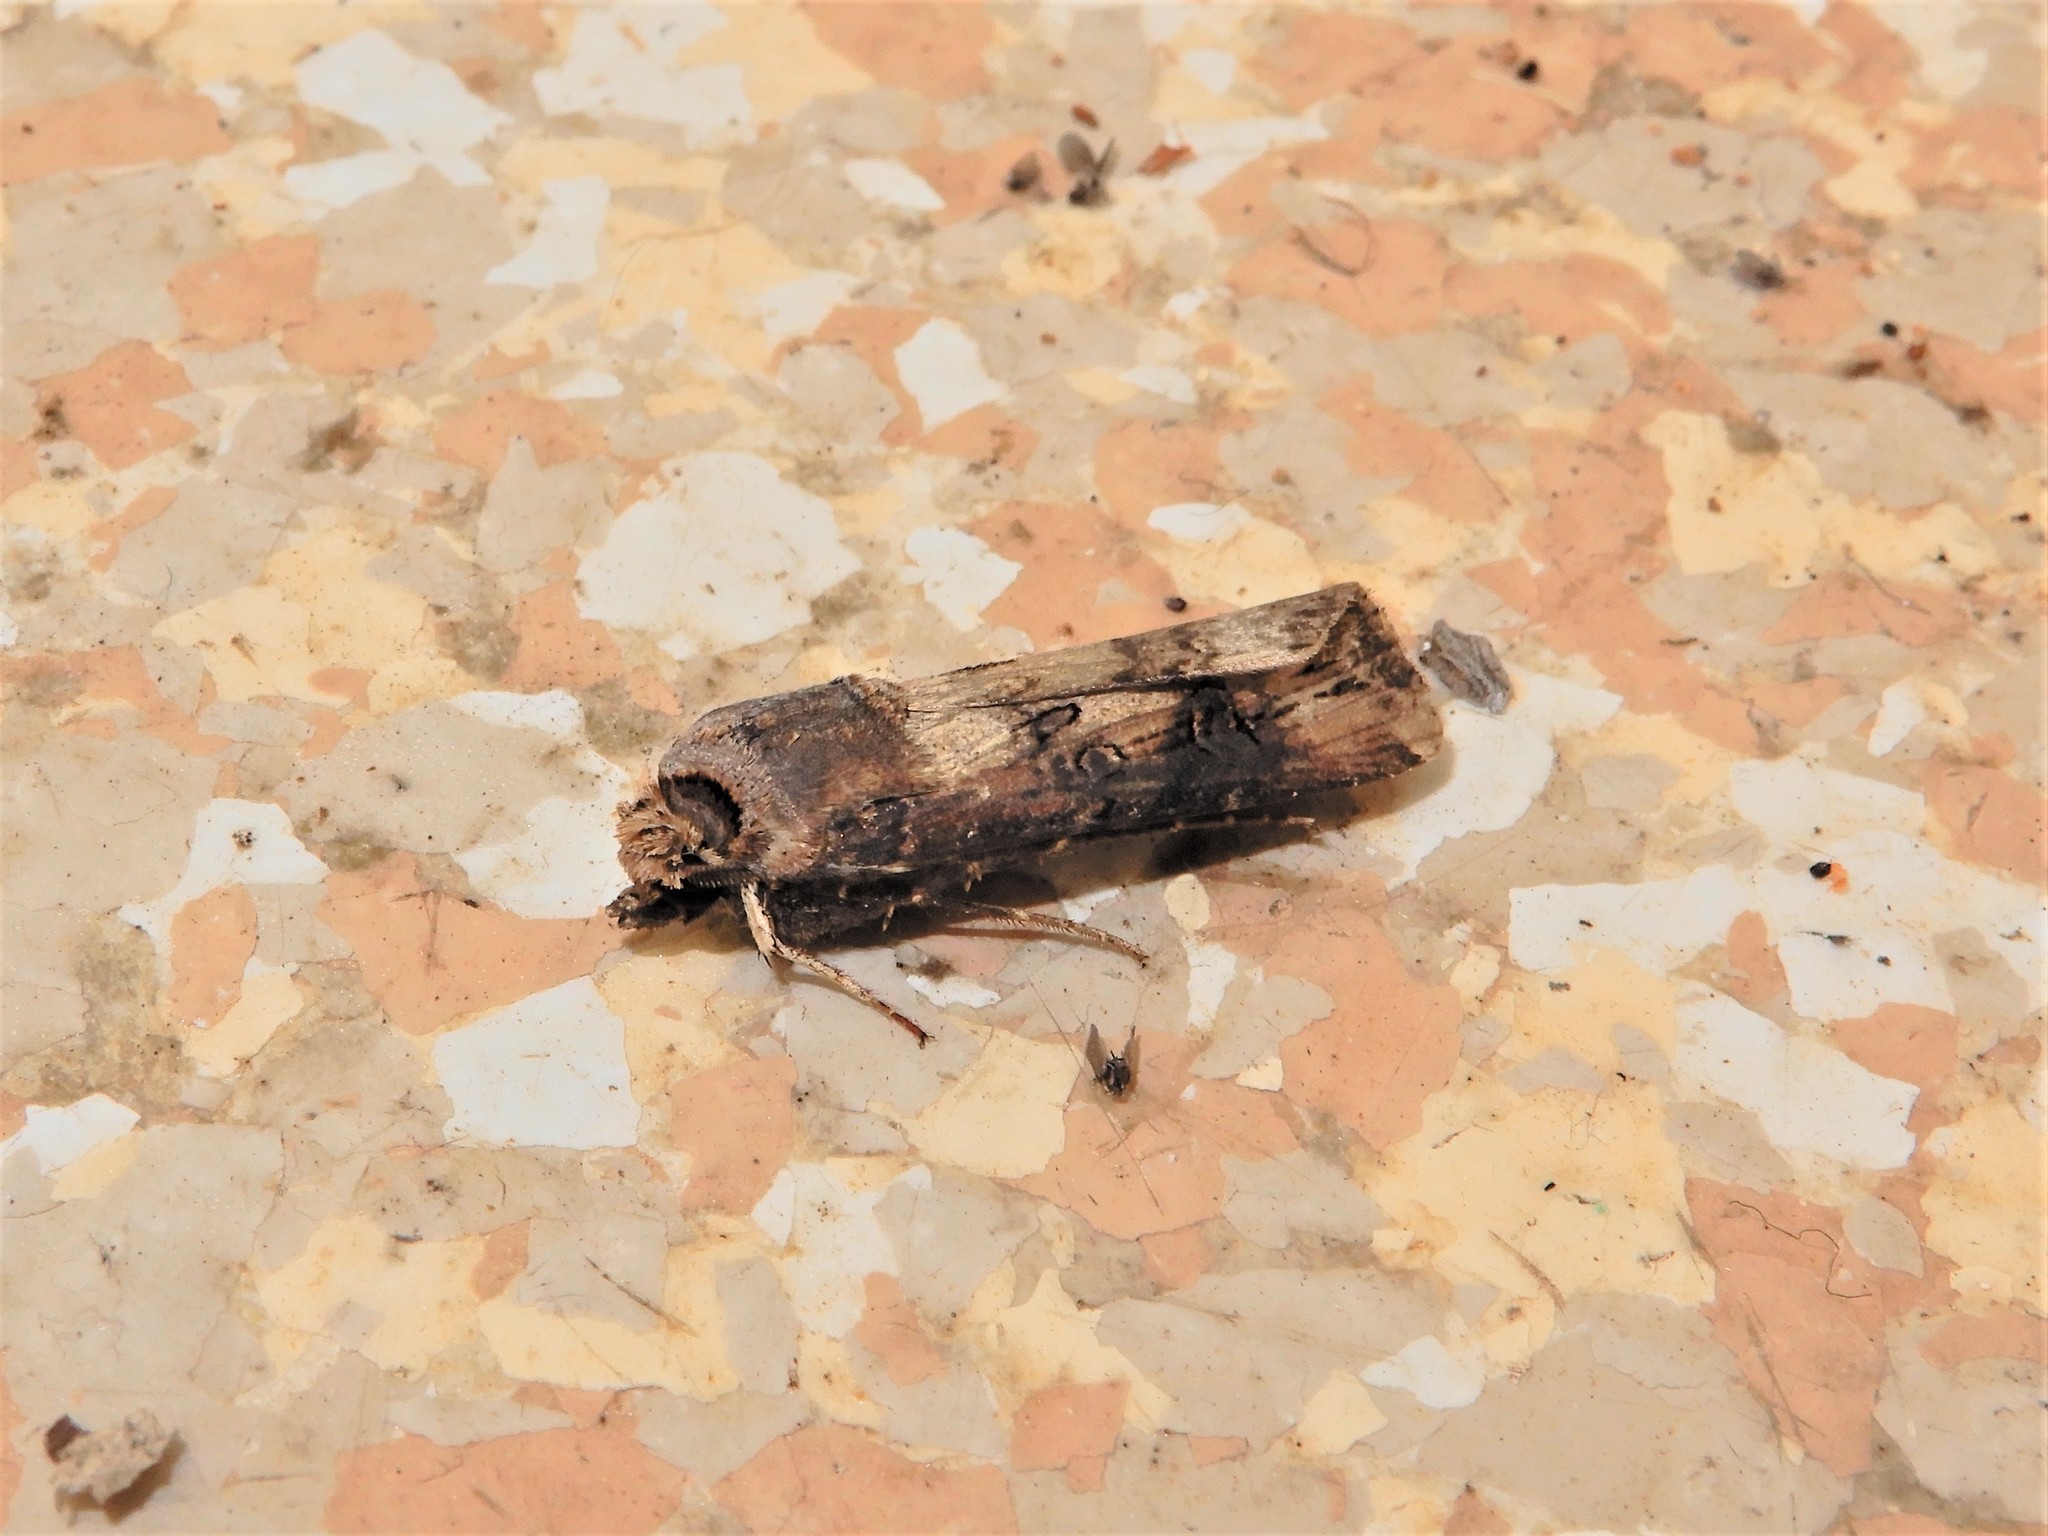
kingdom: Animalia
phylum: Arthropoda
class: Insecta
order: Lepidoptera
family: Noctuidae
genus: Agrotis
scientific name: Agrotis ipsilon
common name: Dark sword-grass
